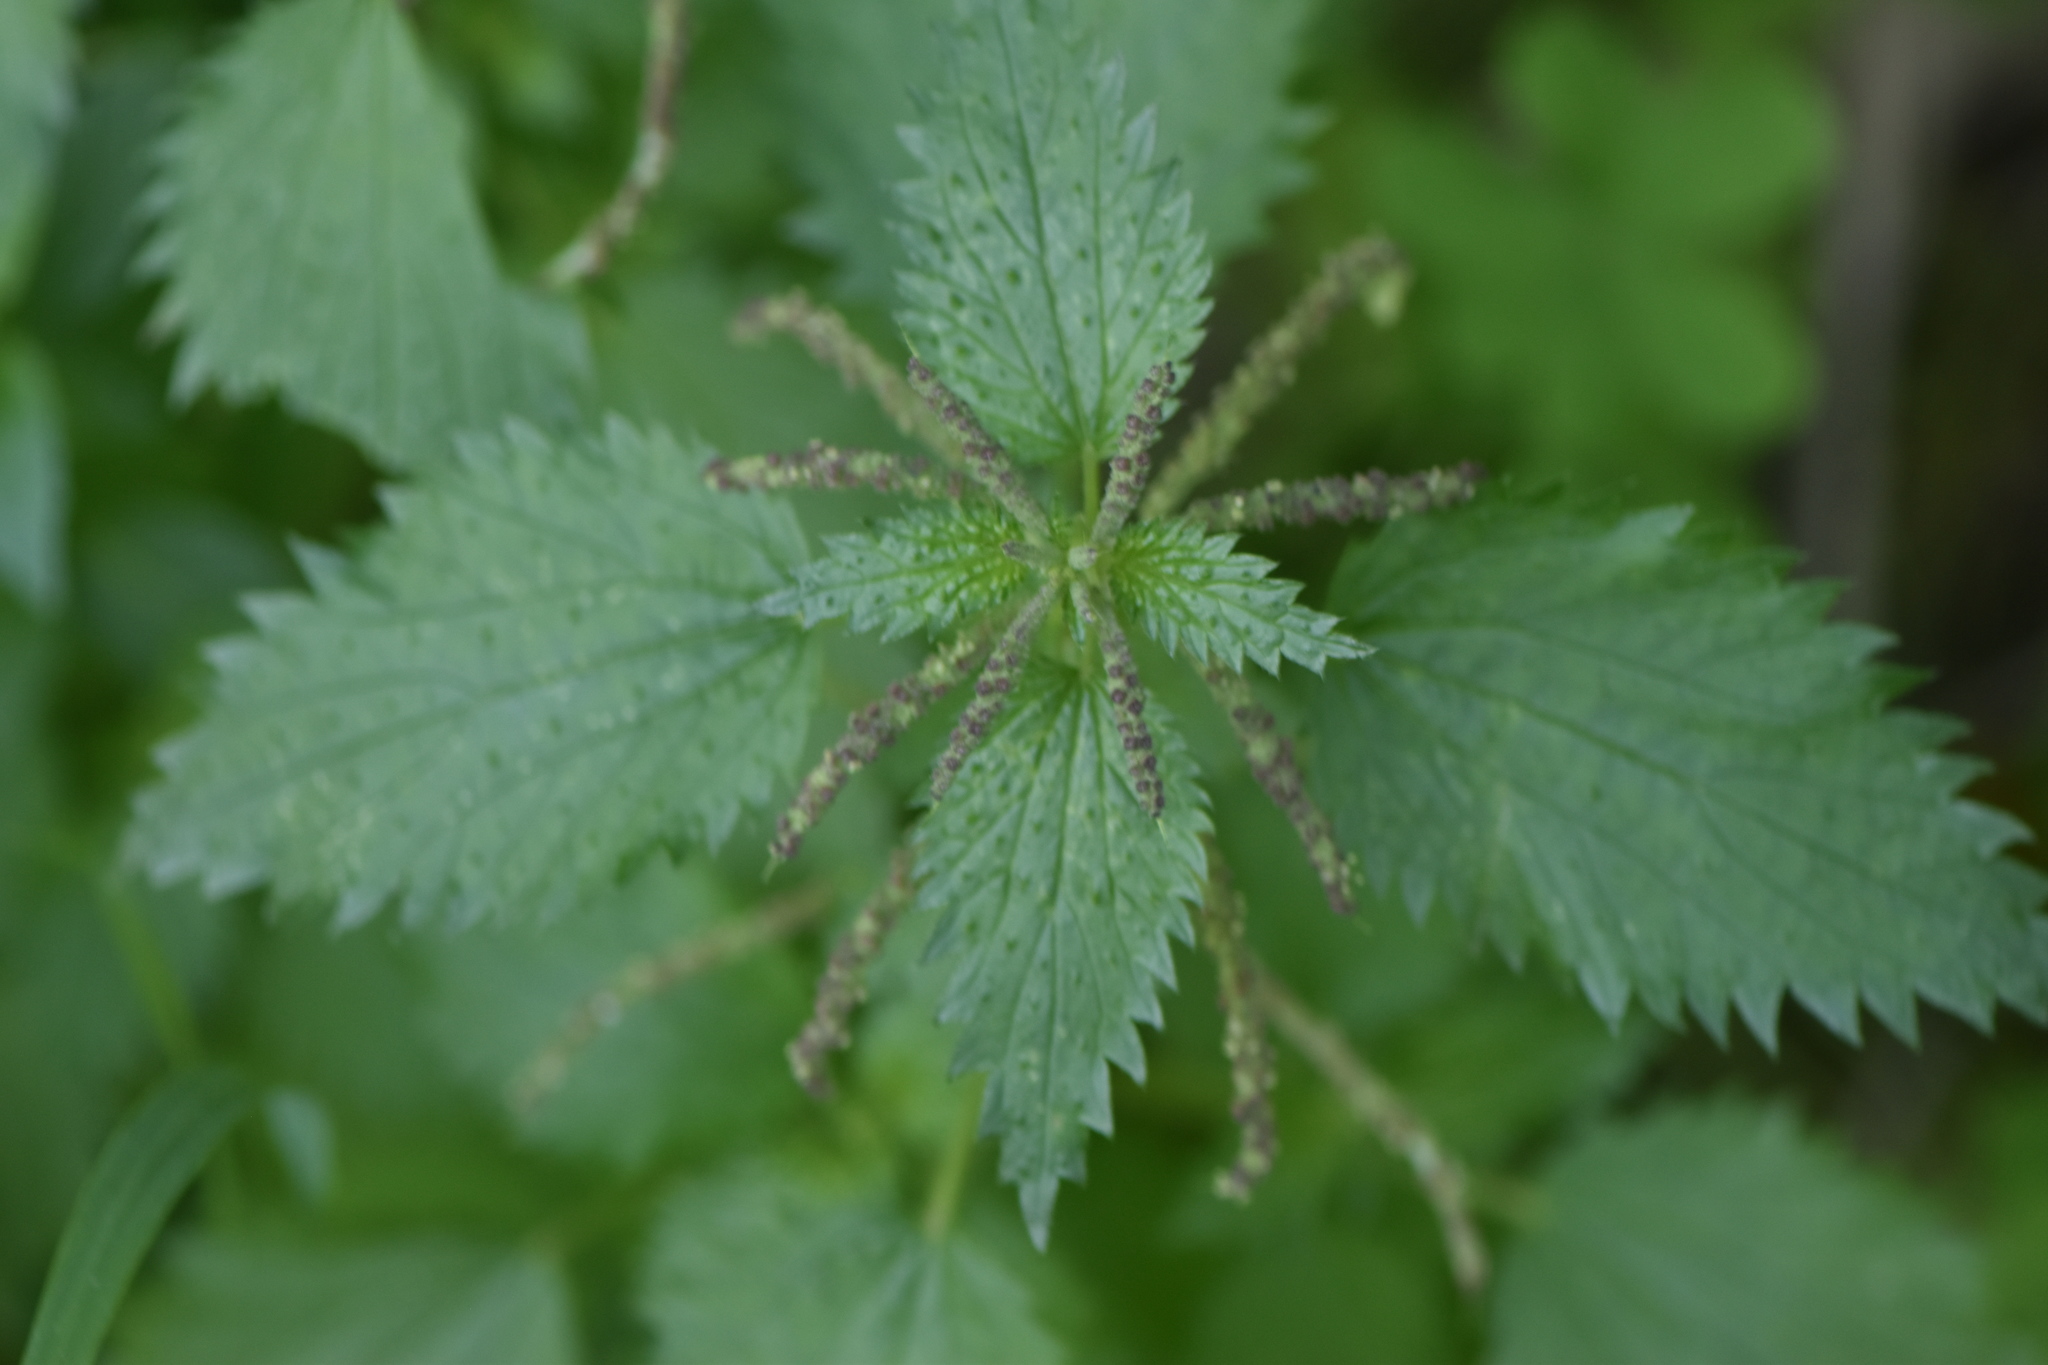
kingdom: Plantae
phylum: Tracheophyta
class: Magnoliopsida
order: Rosales
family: Urticaceae
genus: Urtica
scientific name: Urtica membranacea
